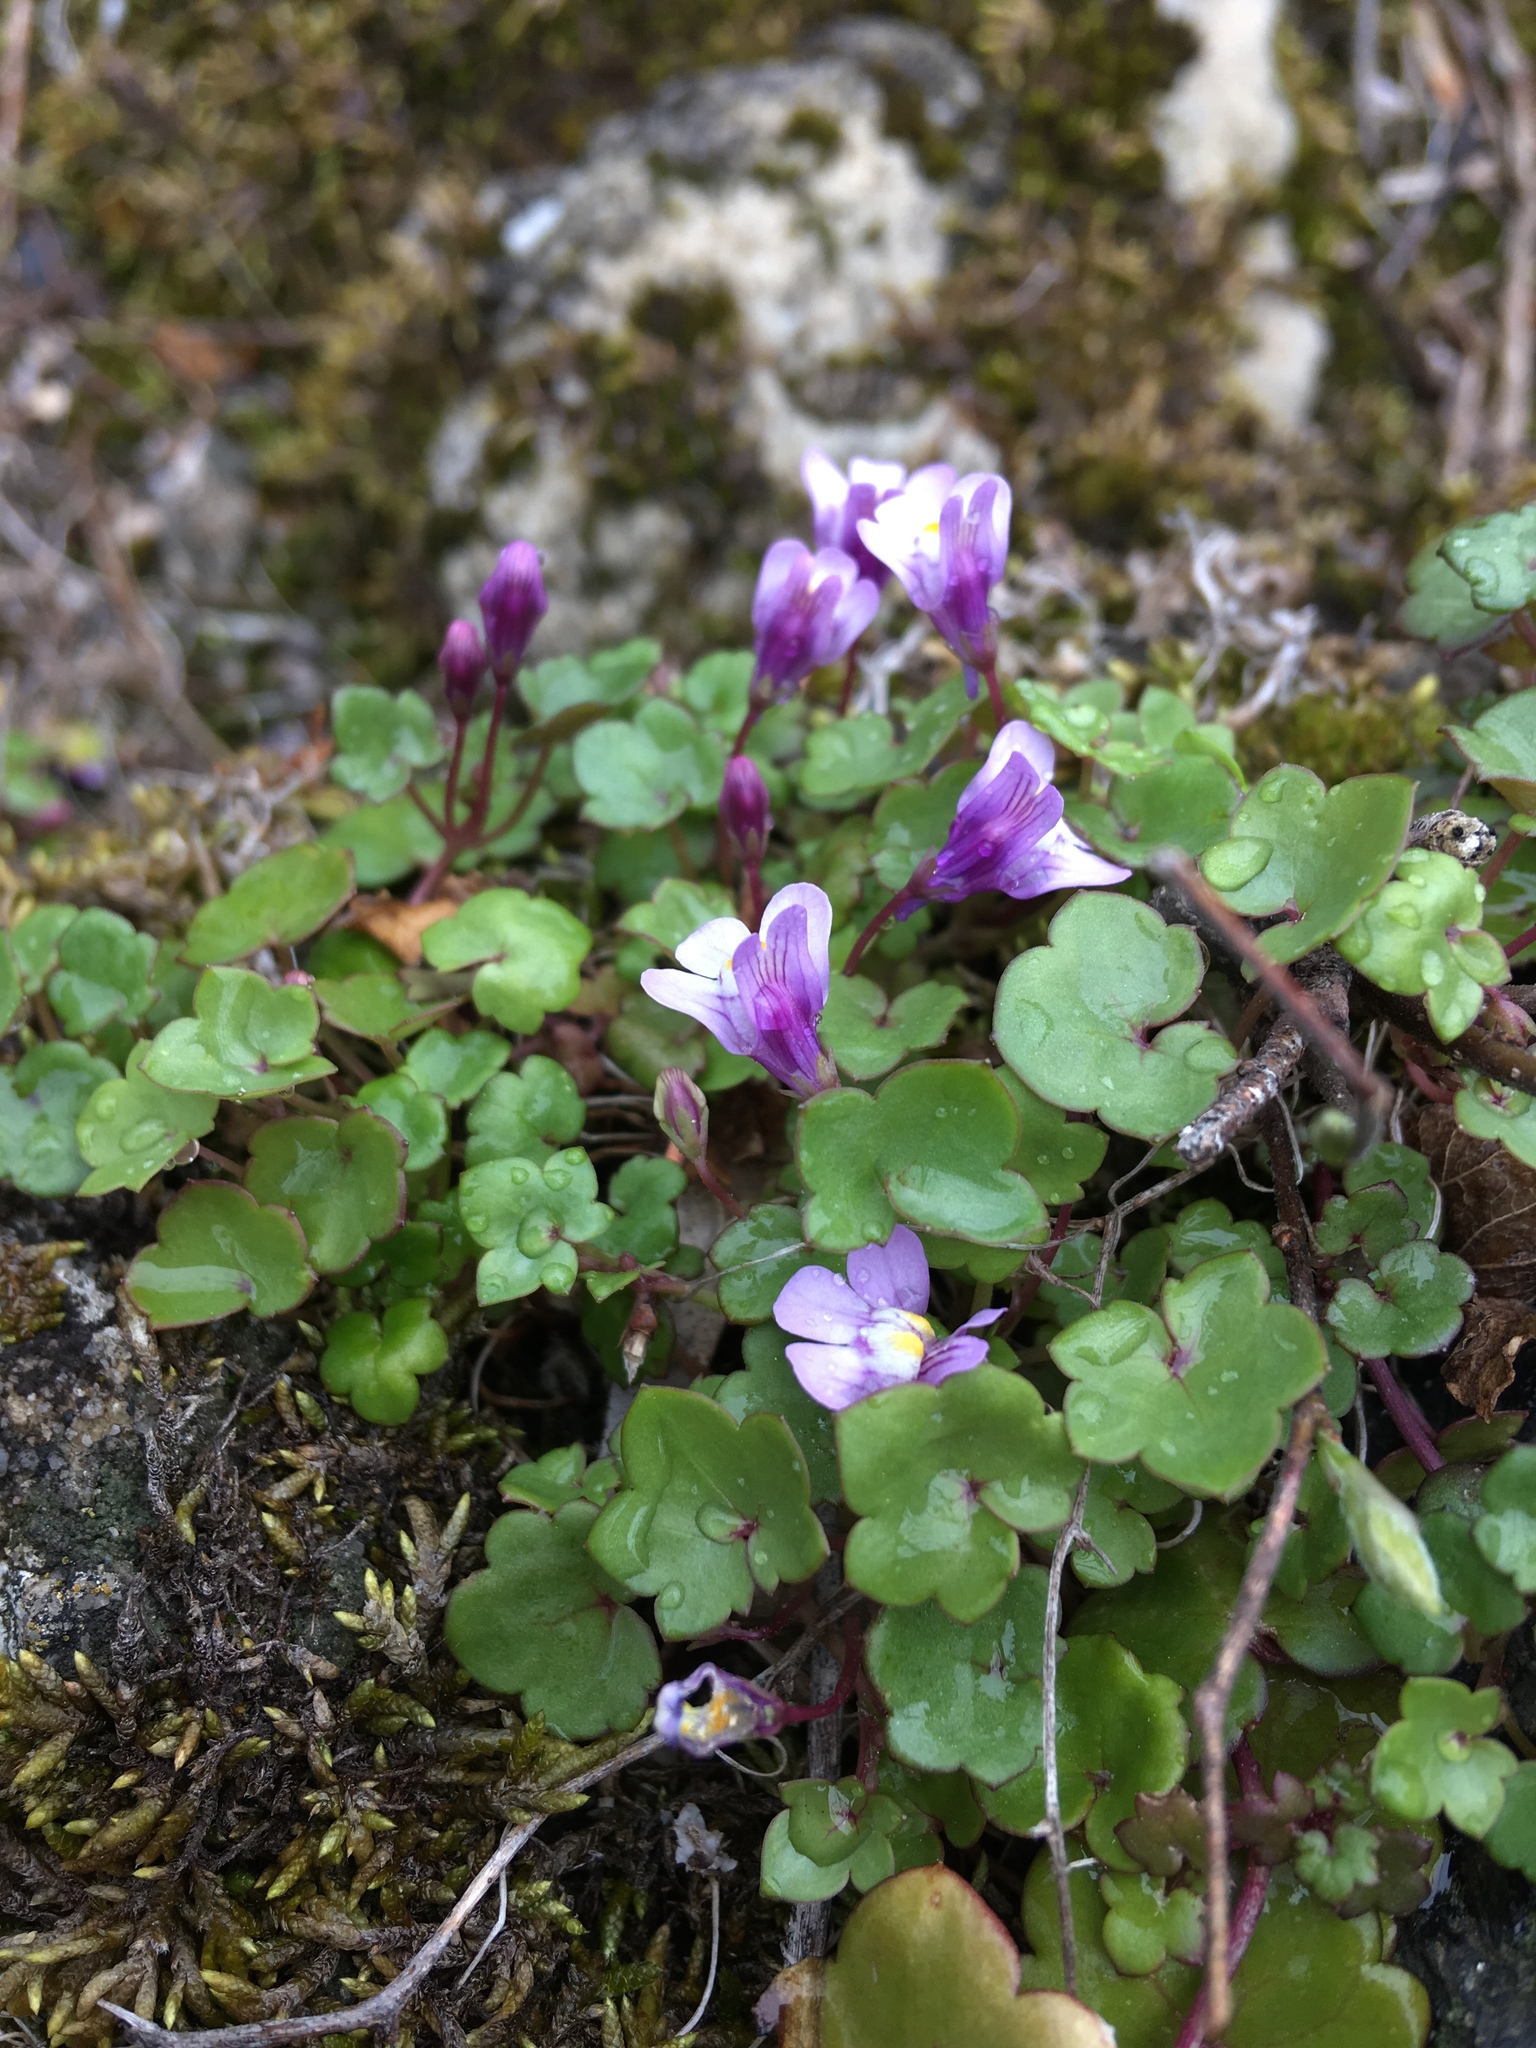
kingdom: Plantae
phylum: Tracheophyta
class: Magnoliopsida
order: Lamiales
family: Plantaginaceae
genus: Cymbalaria
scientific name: Cymbalaria muralis
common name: Ivy-leaved toadflax
